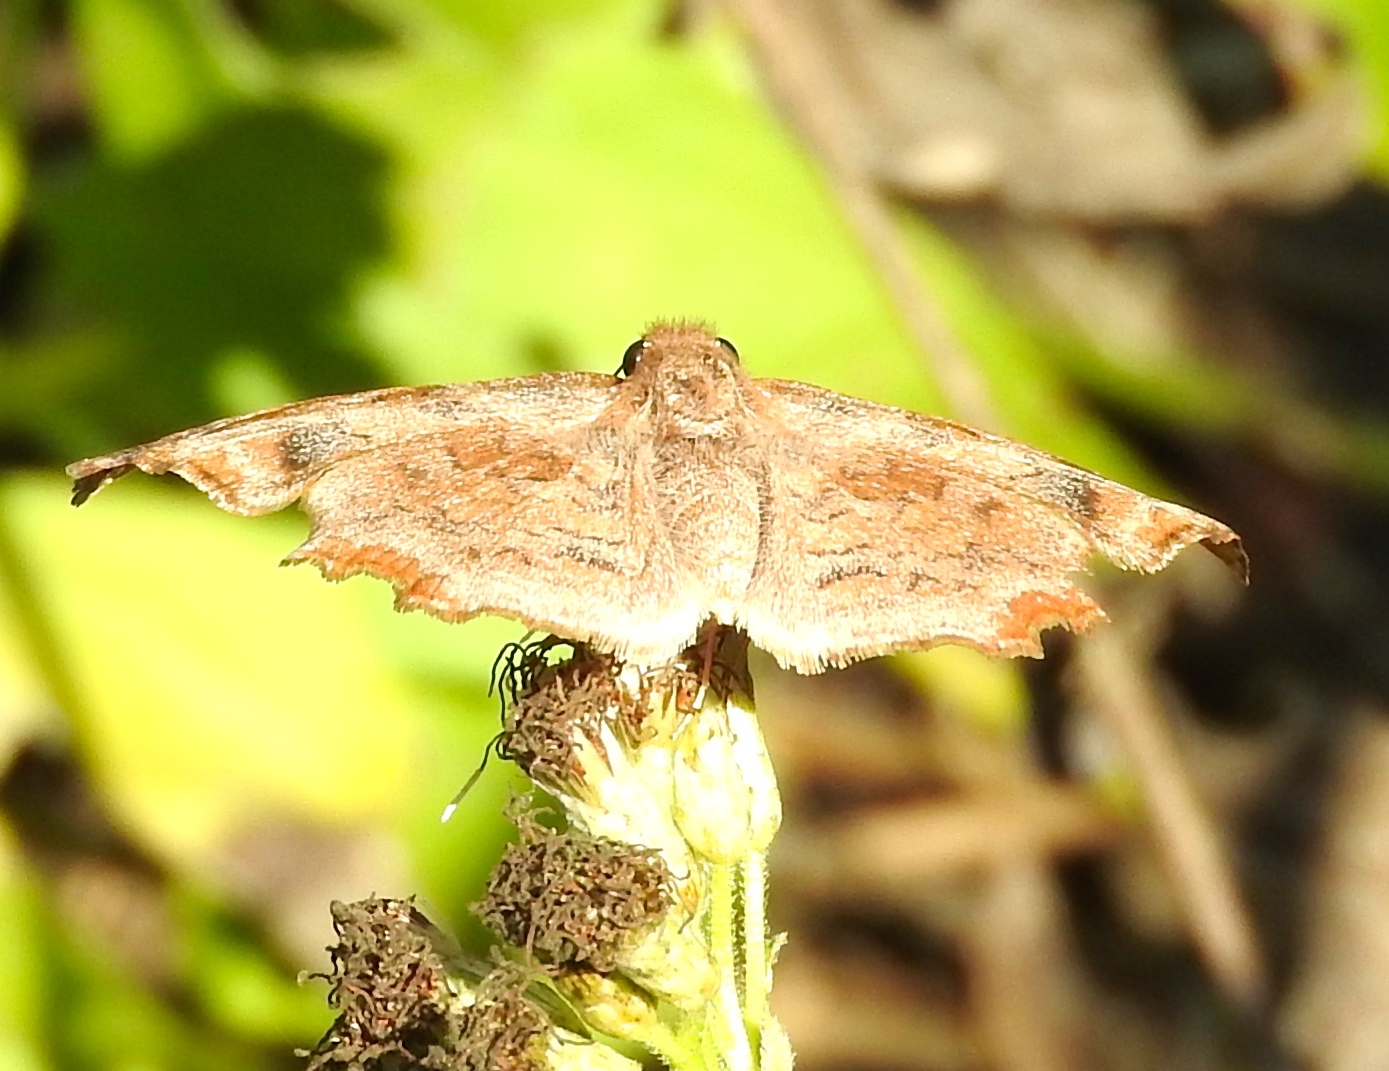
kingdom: Animalia
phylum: Arthropoda
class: Insecta
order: Lepidoptera
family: Hesperiidae
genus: Antigonus
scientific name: Antigonus erosus
